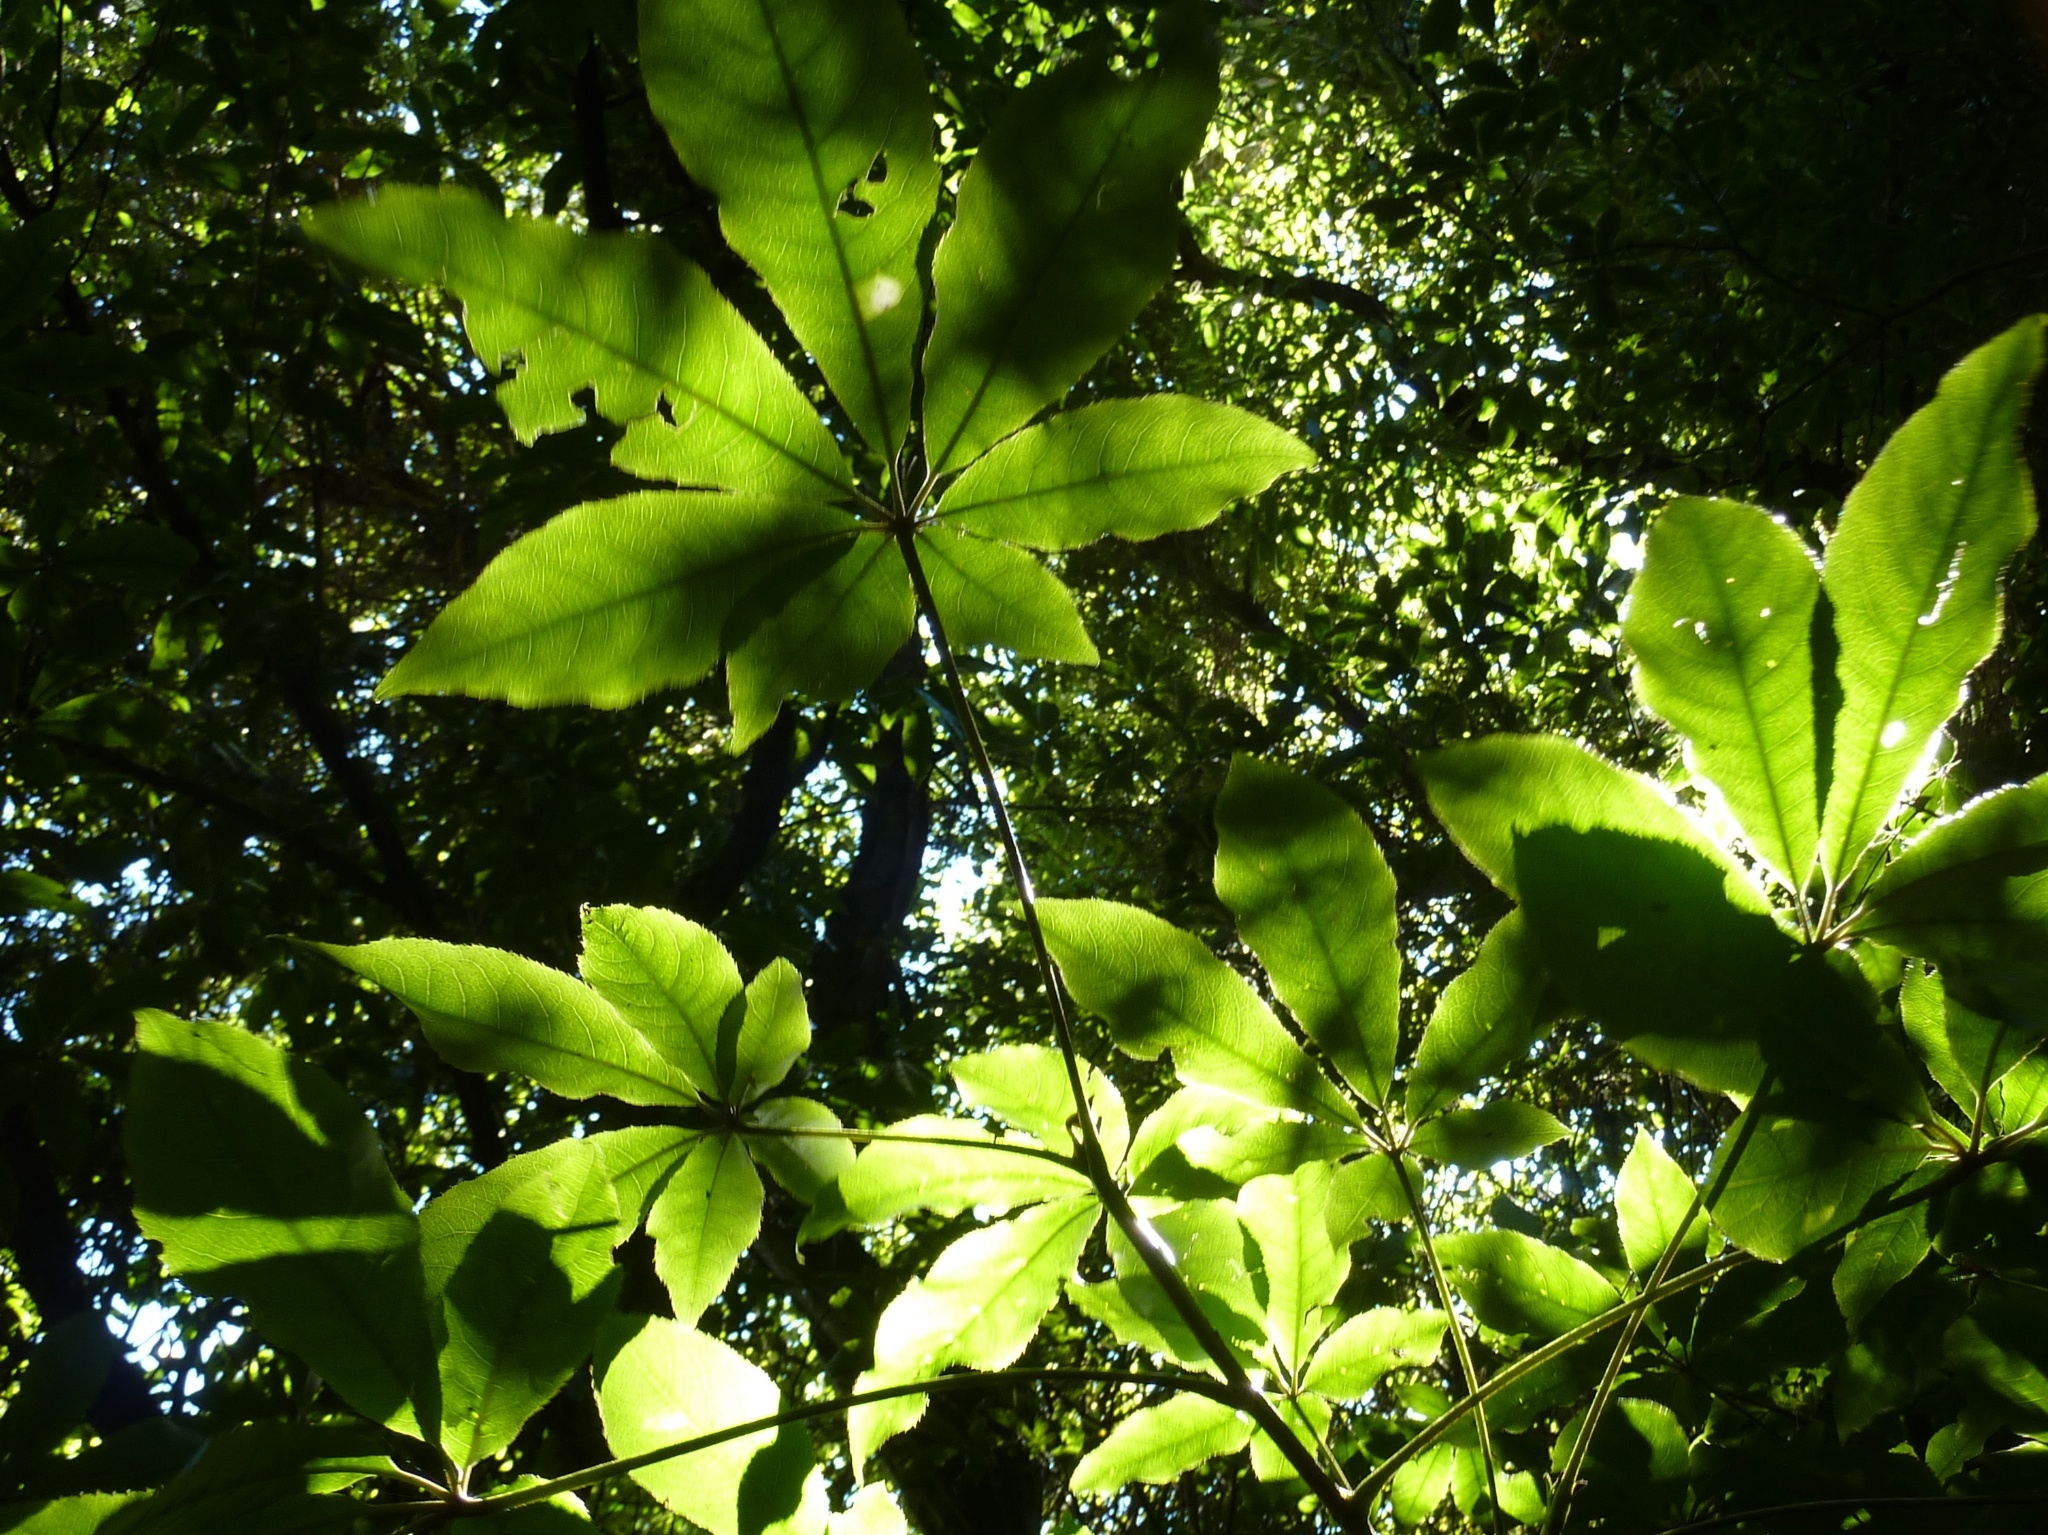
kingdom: Plantae
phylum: Tracheophyta
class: Magnoliopsida
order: Apiales
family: Araliaceae
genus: Schefflera
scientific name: Schefflera digitata
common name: Pate
